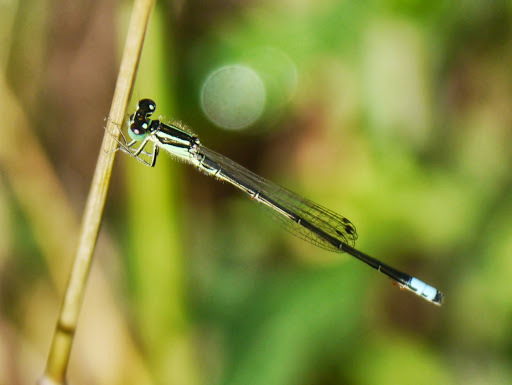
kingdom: Animalia
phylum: Arthropoda
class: Insecta
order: Odonata
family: Coenagrionidae
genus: Ischnura
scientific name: Ischnura verticalis
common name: Eastern forktail
